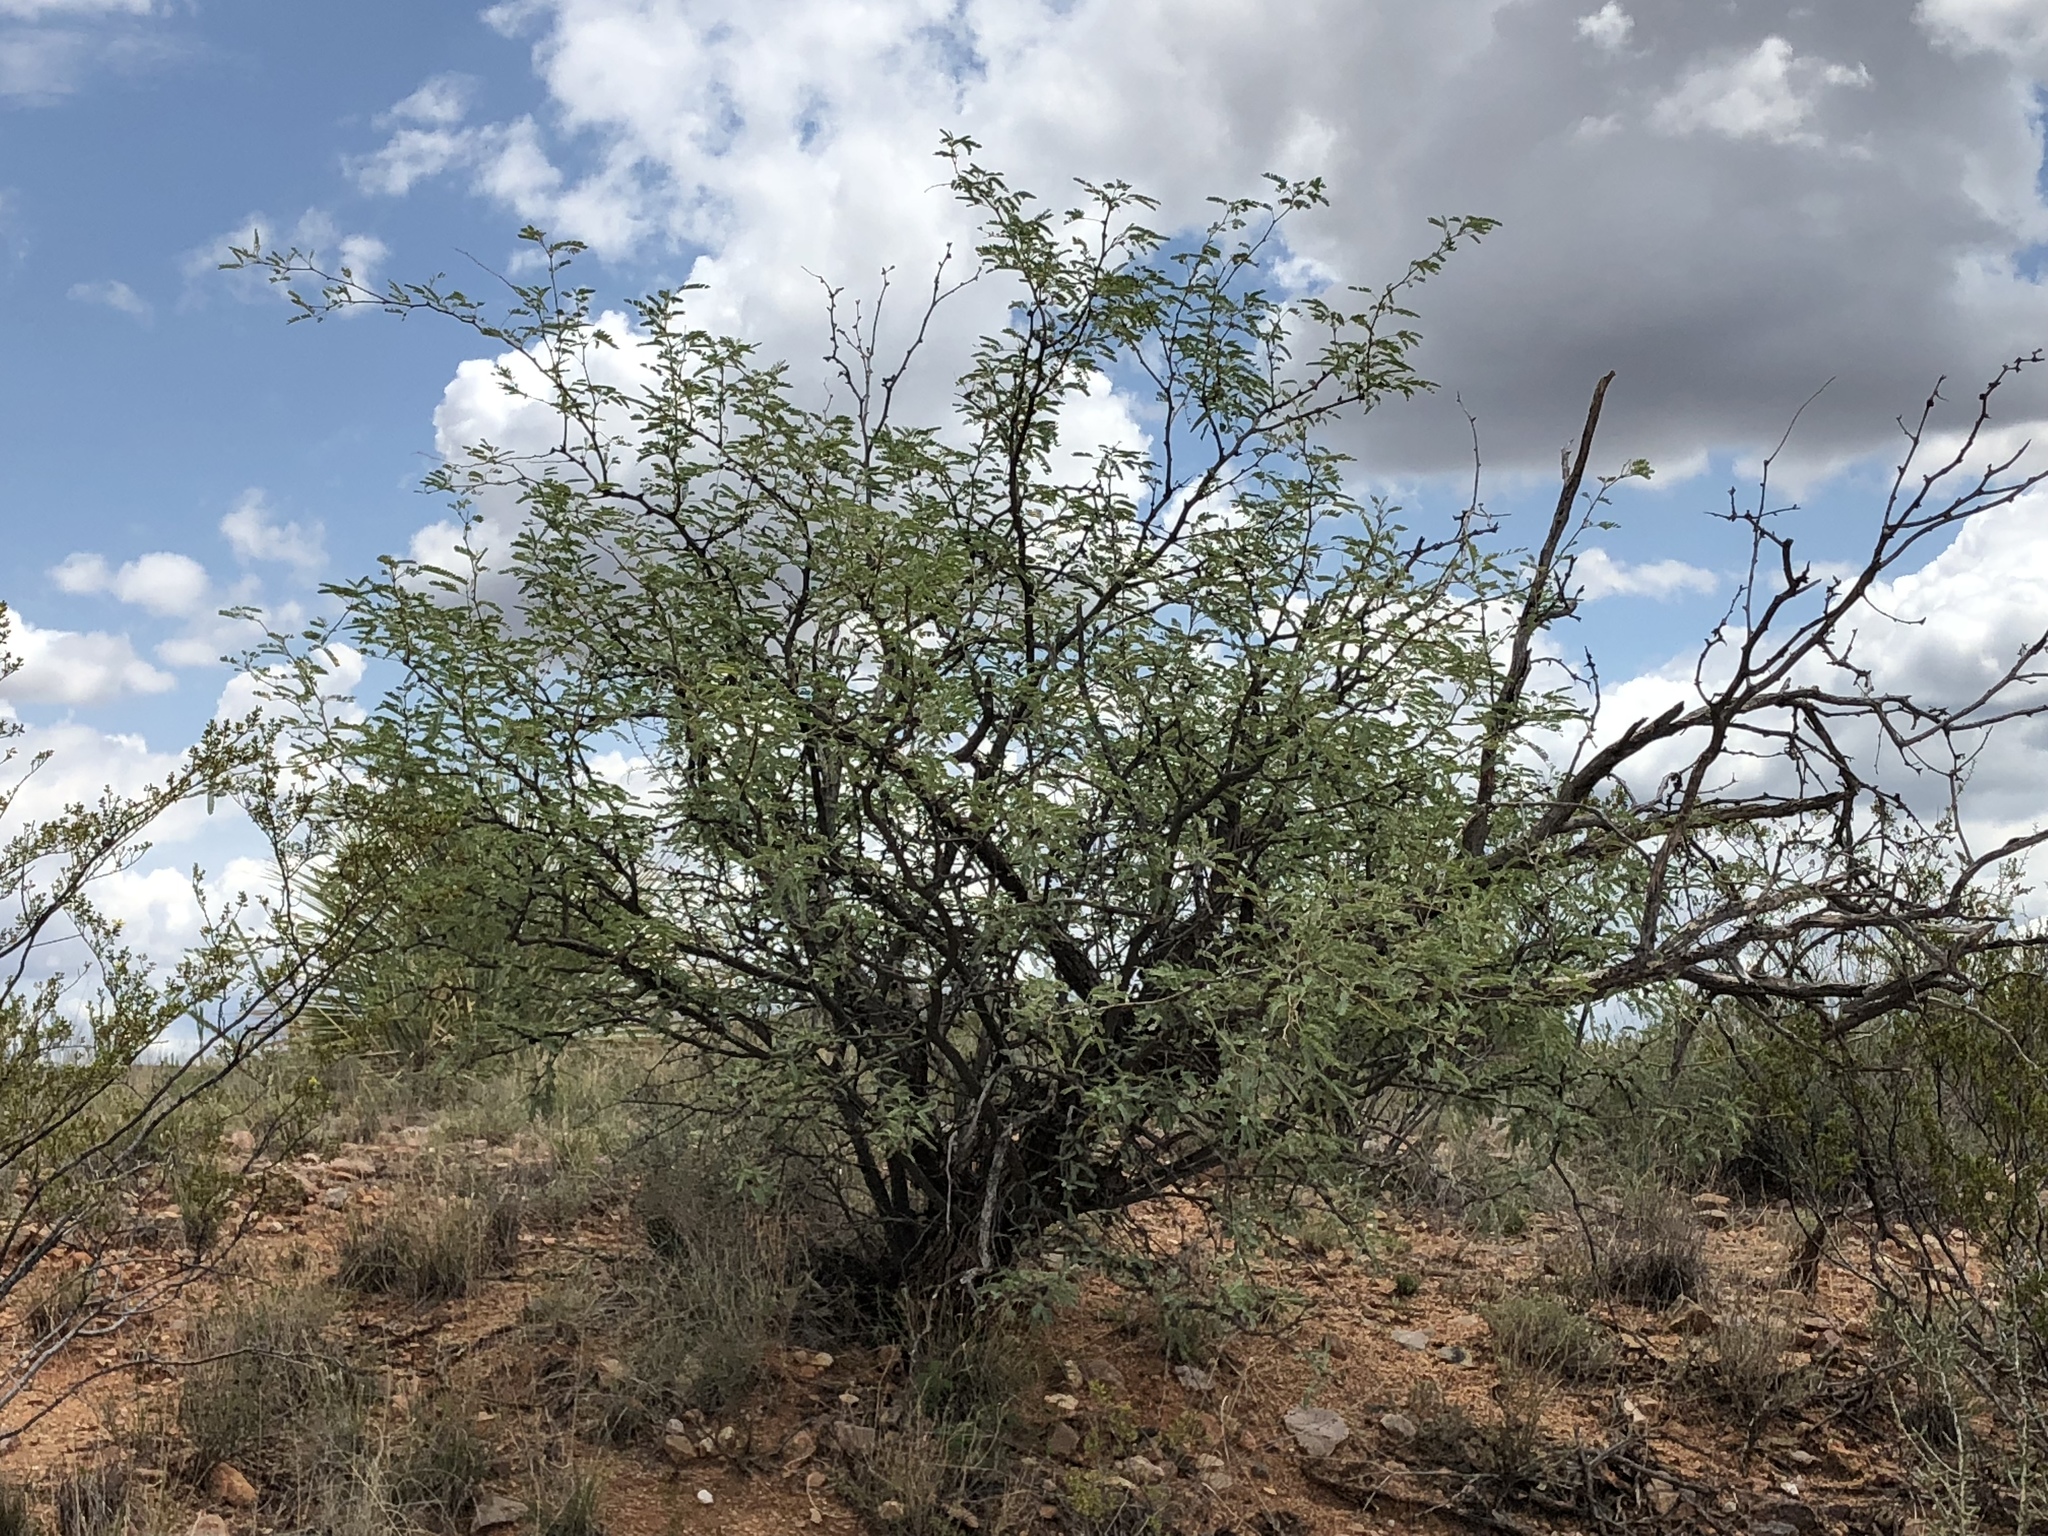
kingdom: Plantae
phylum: Tracheophyta
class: Magnoliopsida
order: Fabales
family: Fabaceae
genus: Prosopis
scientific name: Prosopis velutina
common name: Velvet mesquite
